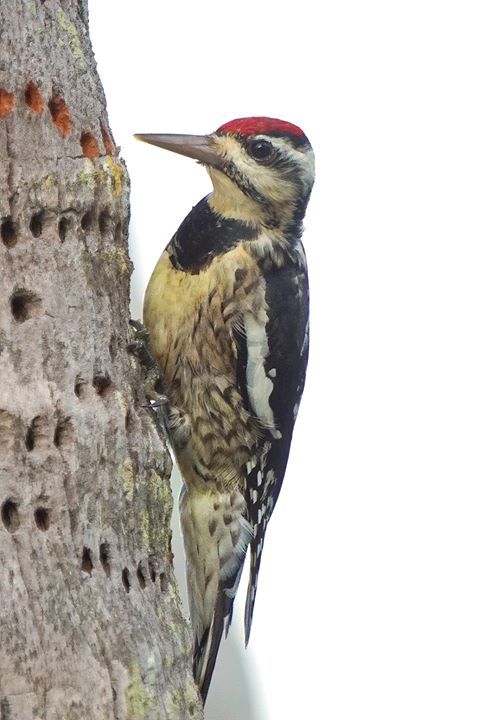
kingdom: Animalia
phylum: Chordata
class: Aves
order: Piciformes
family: Picidae
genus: Sphyrapicus
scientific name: Sphyrapicus varius
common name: Yellow-bellied sapsucker
